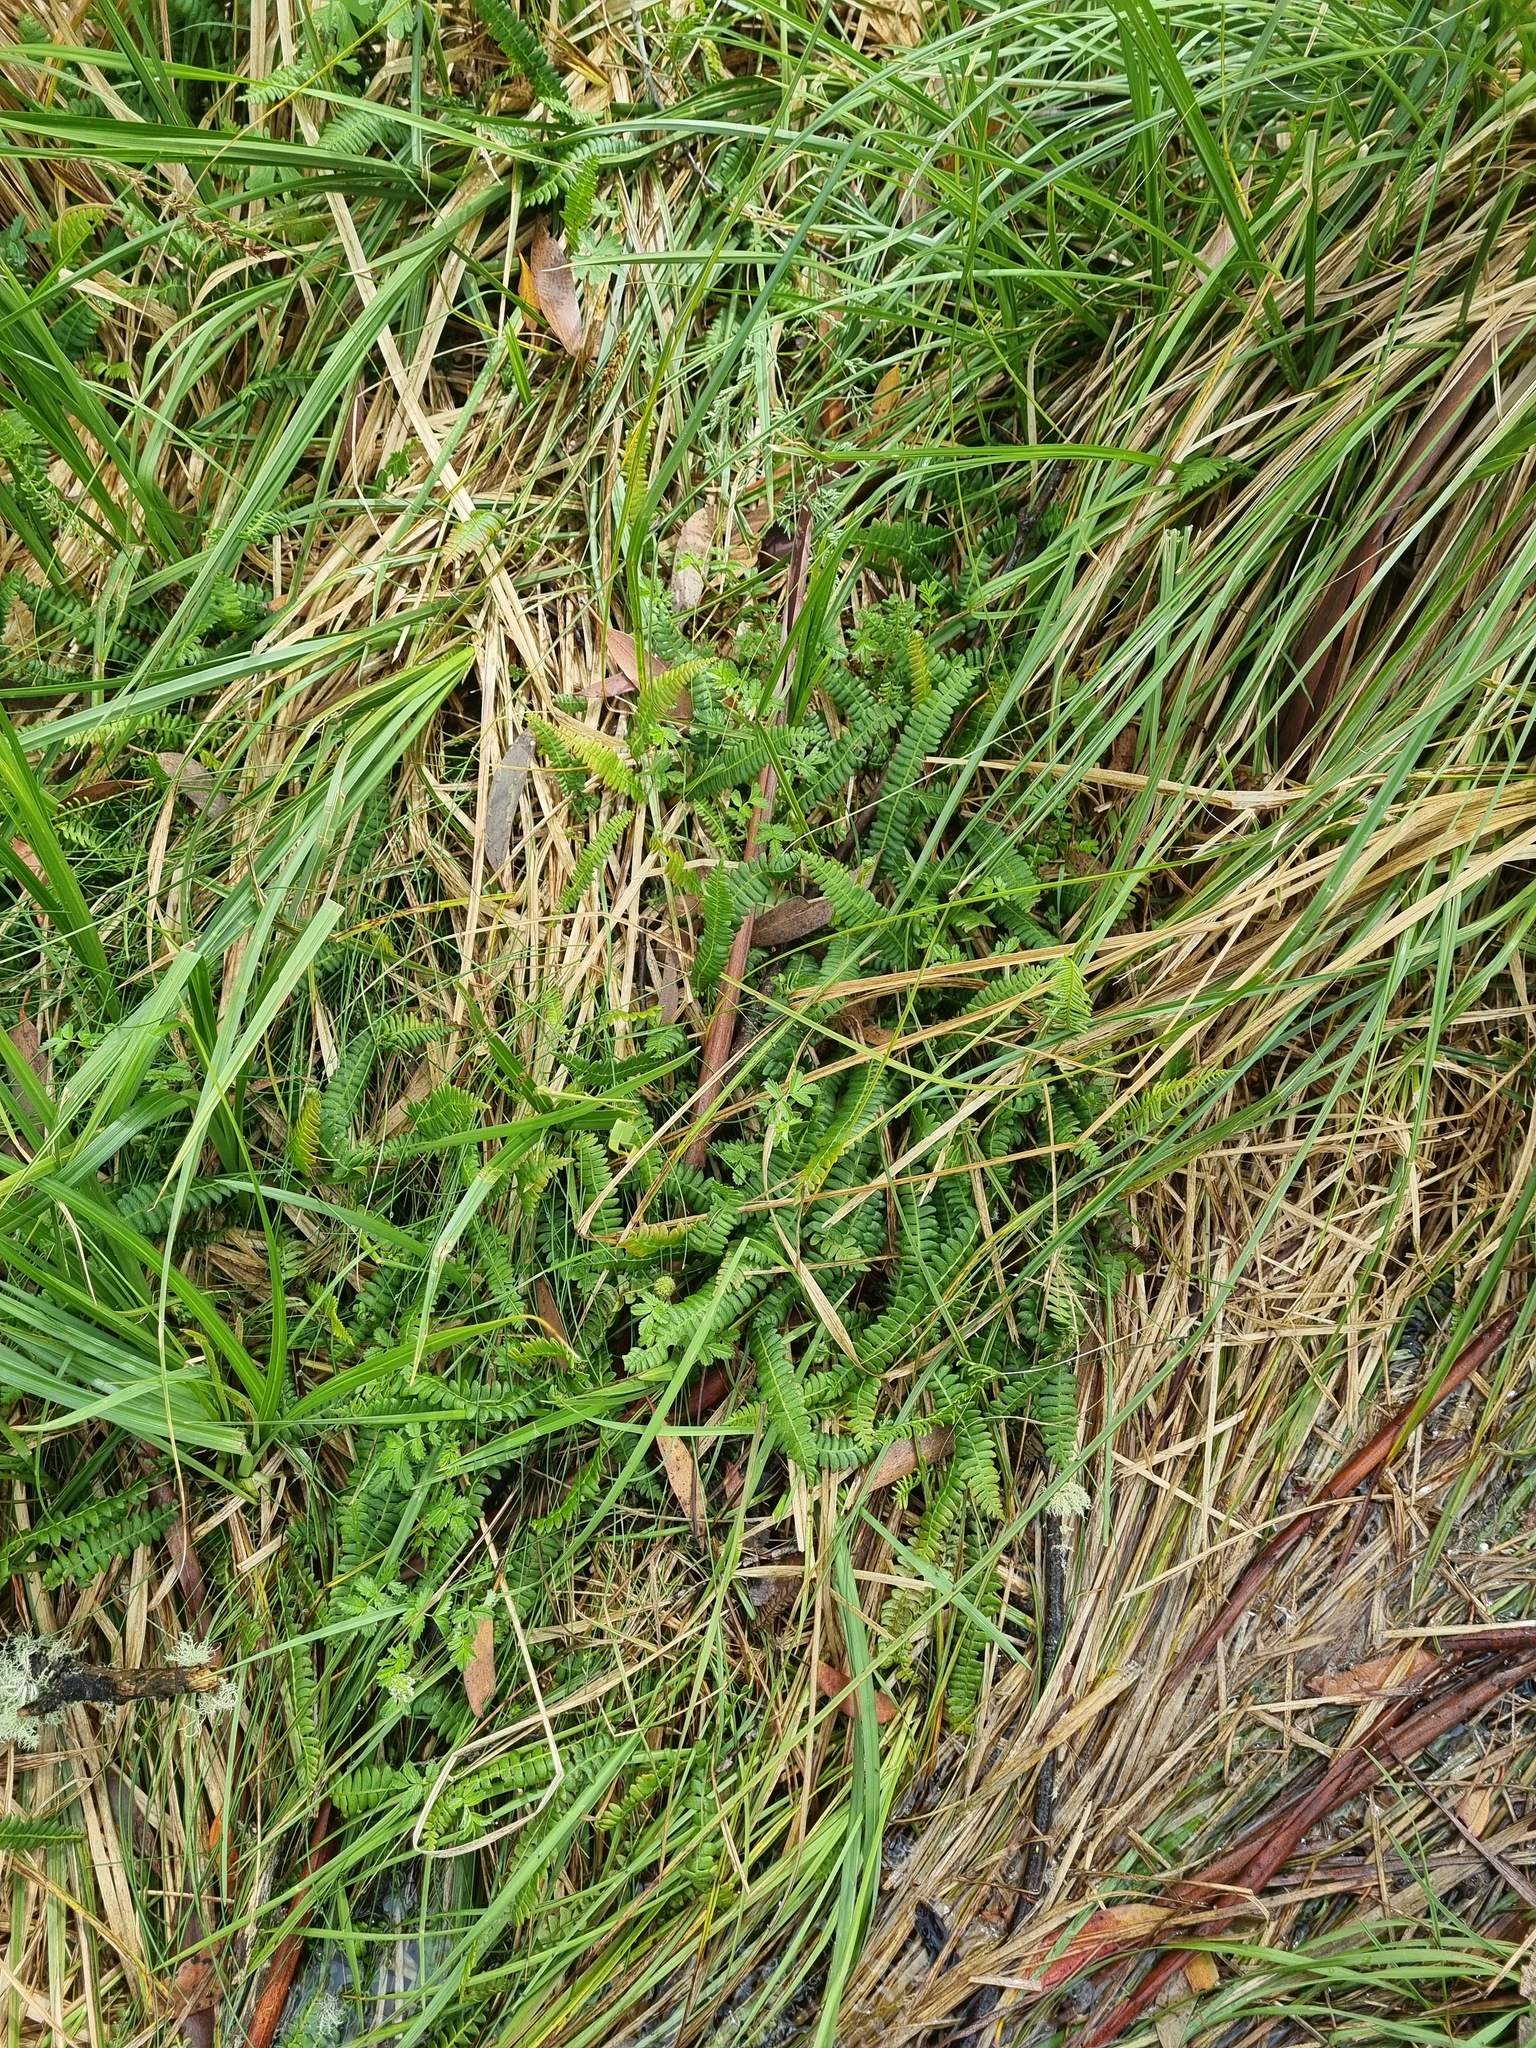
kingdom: Plantae
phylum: Tracheophyta
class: Polypodiopsida
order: Polypodiales
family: Blechnaceae
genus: Austroblechnum
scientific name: Austroblechnum penna-marina
